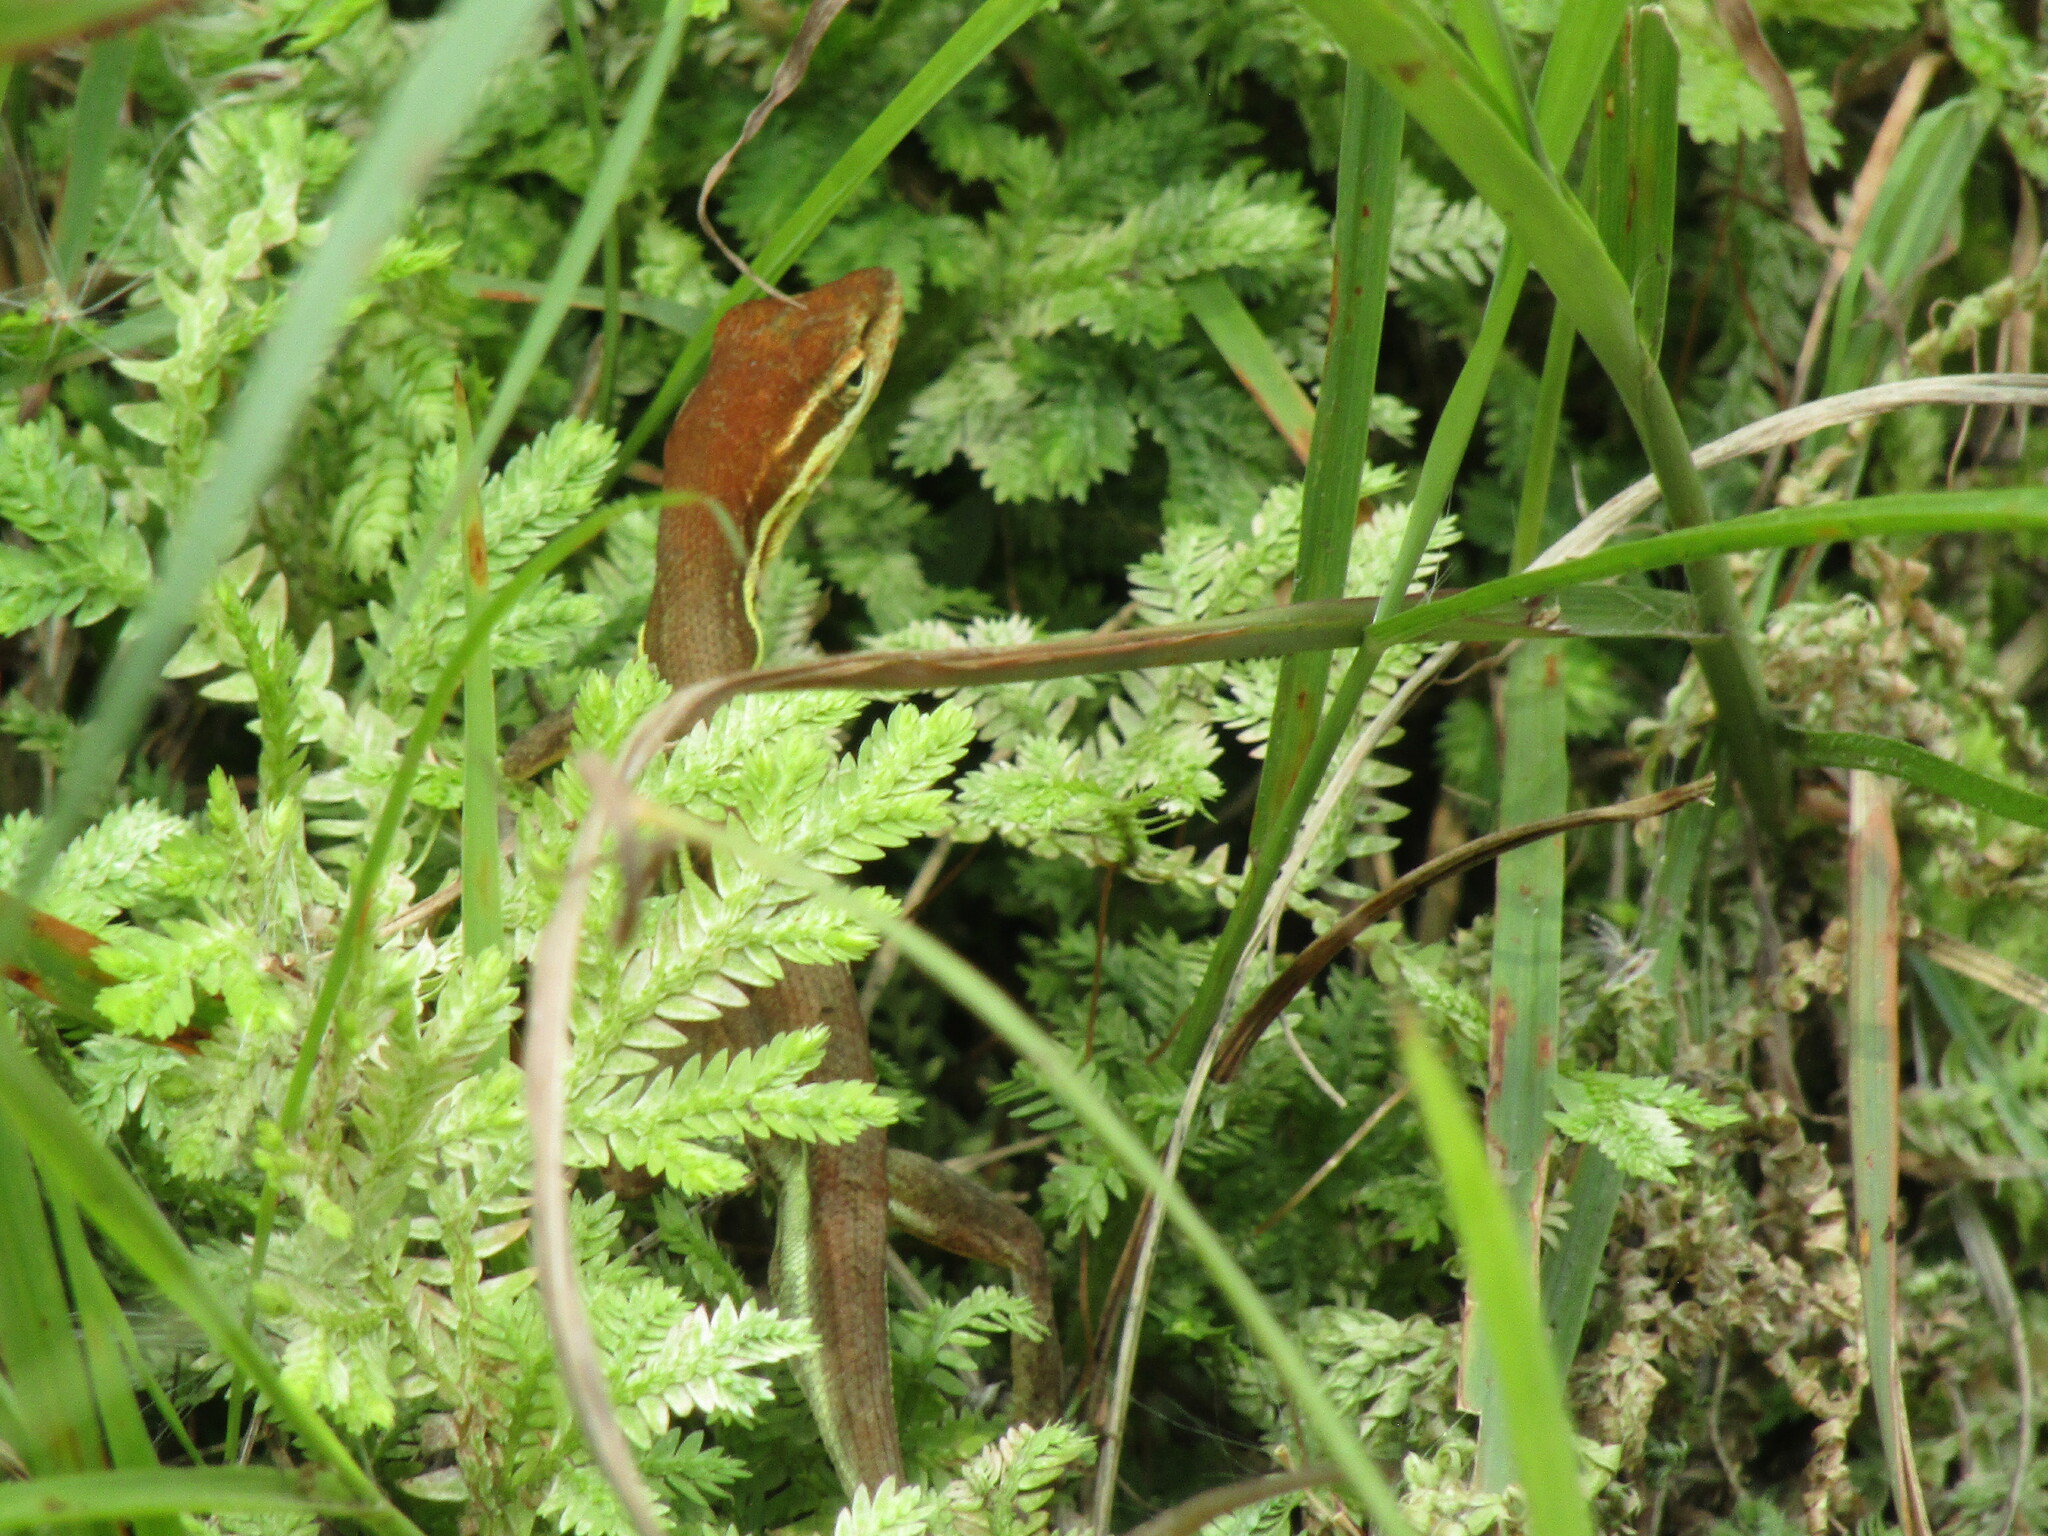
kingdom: Animalia
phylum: Chordata
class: Squamata
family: Dactyloidae
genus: Anolis
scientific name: Anolis auratus
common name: Grass anole
